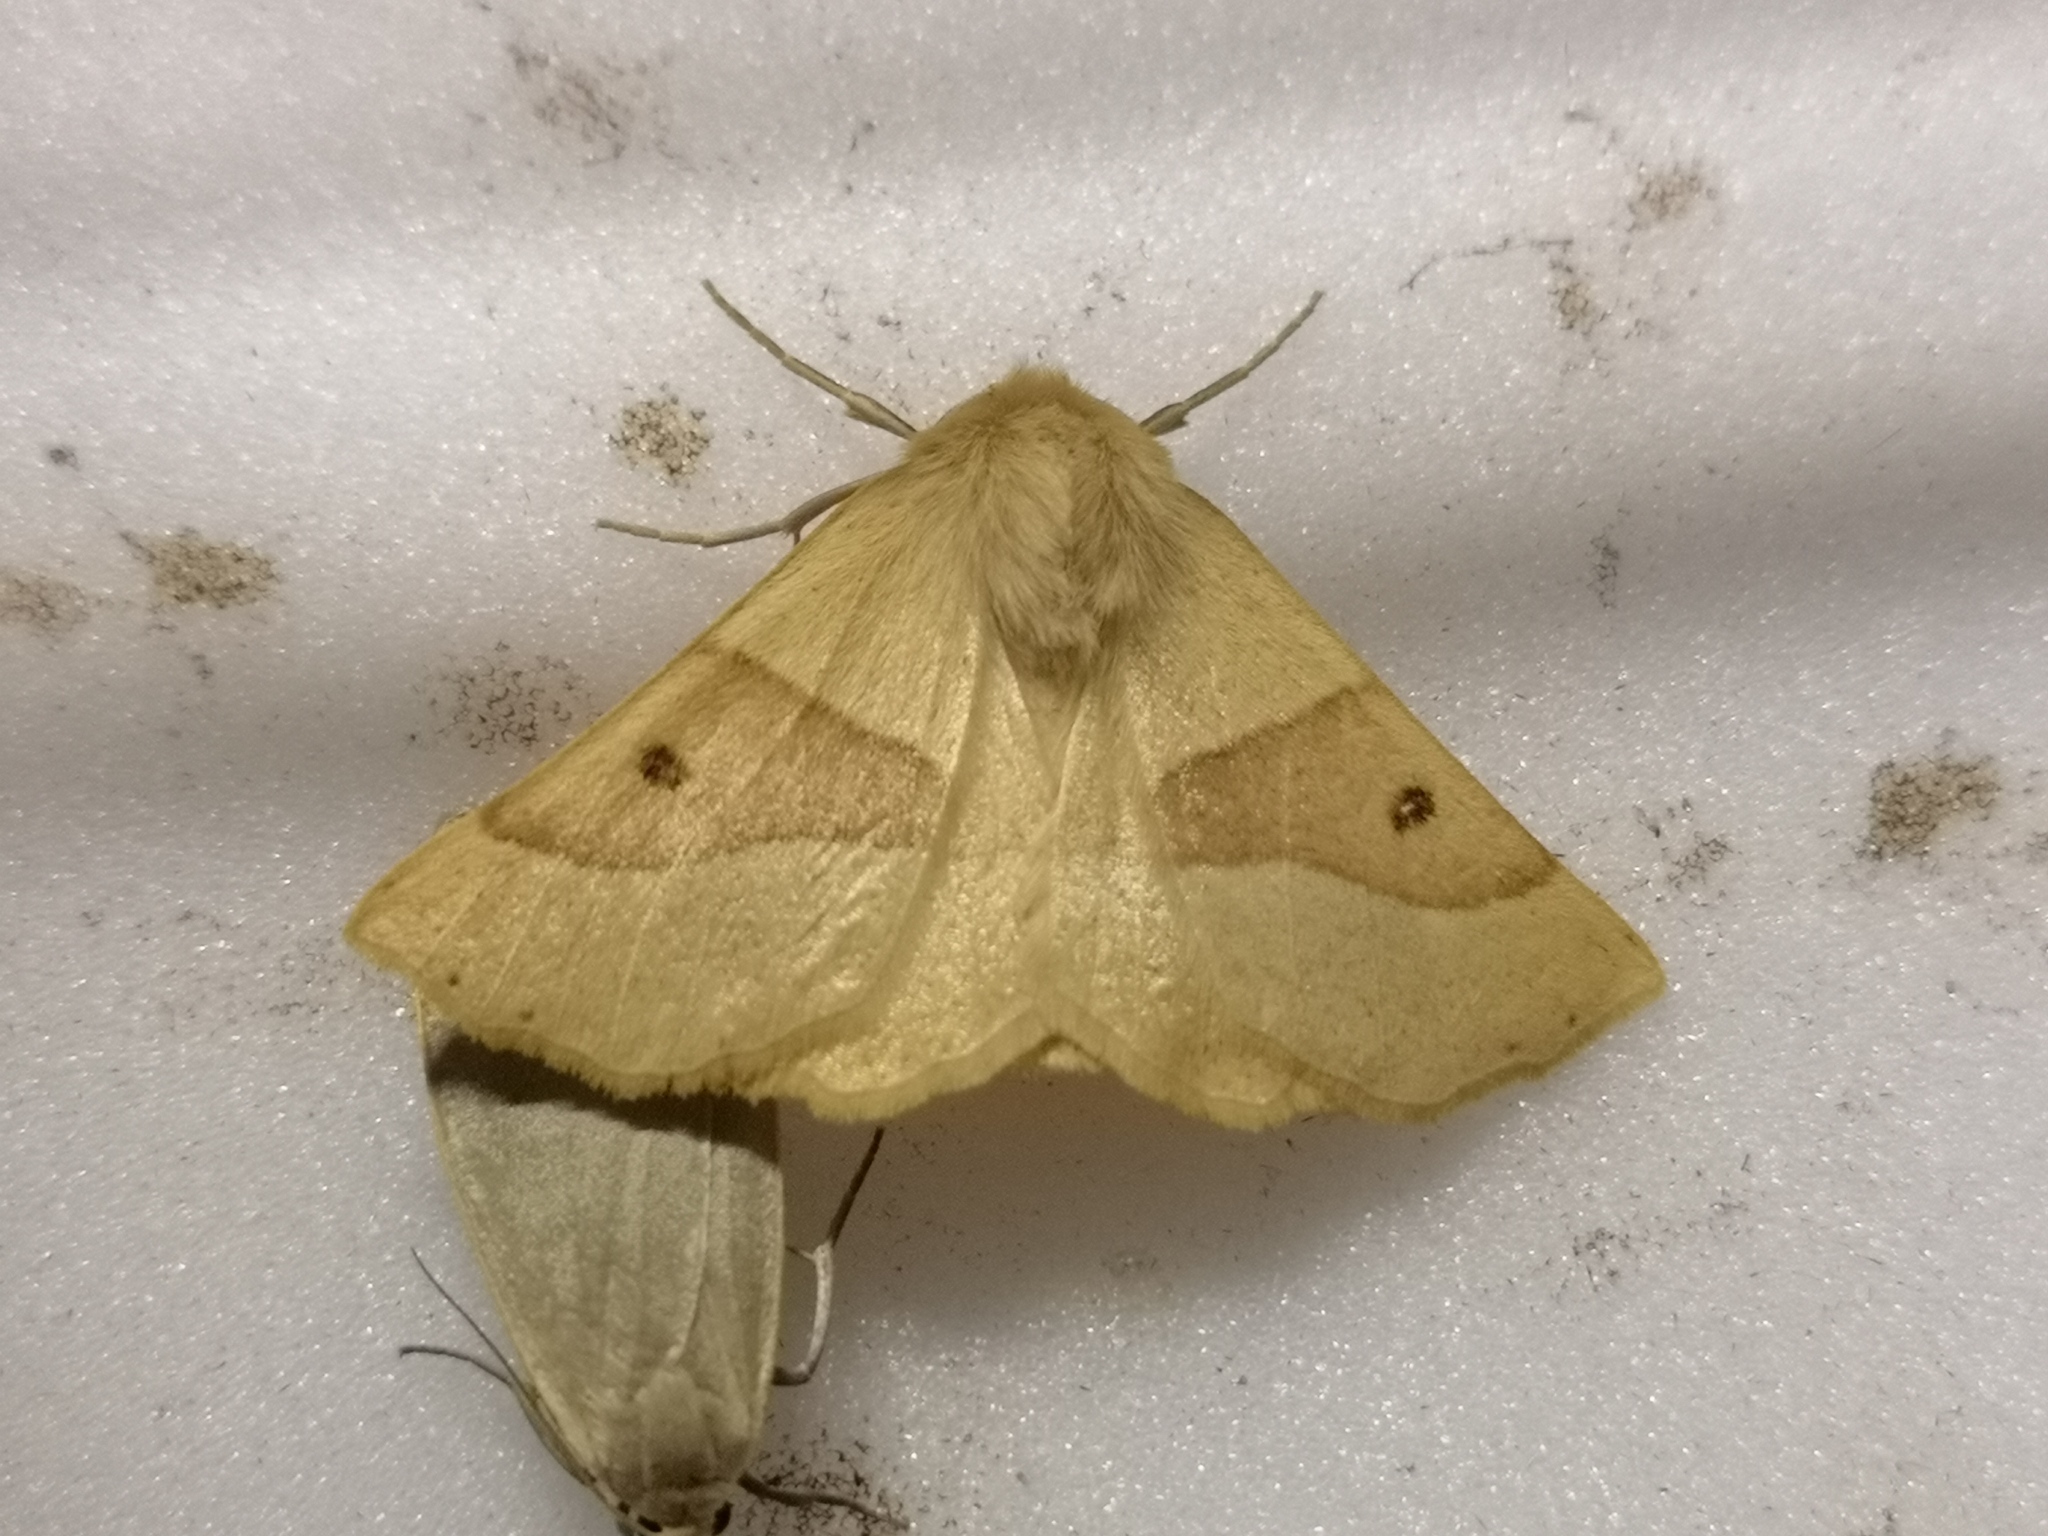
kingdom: Animalia
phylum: Arthropoda
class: Insecta
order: Lepidoptera
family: Geometridae
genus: Crocallis
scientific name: Crocallis elinguaria
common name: Scalloped oak
